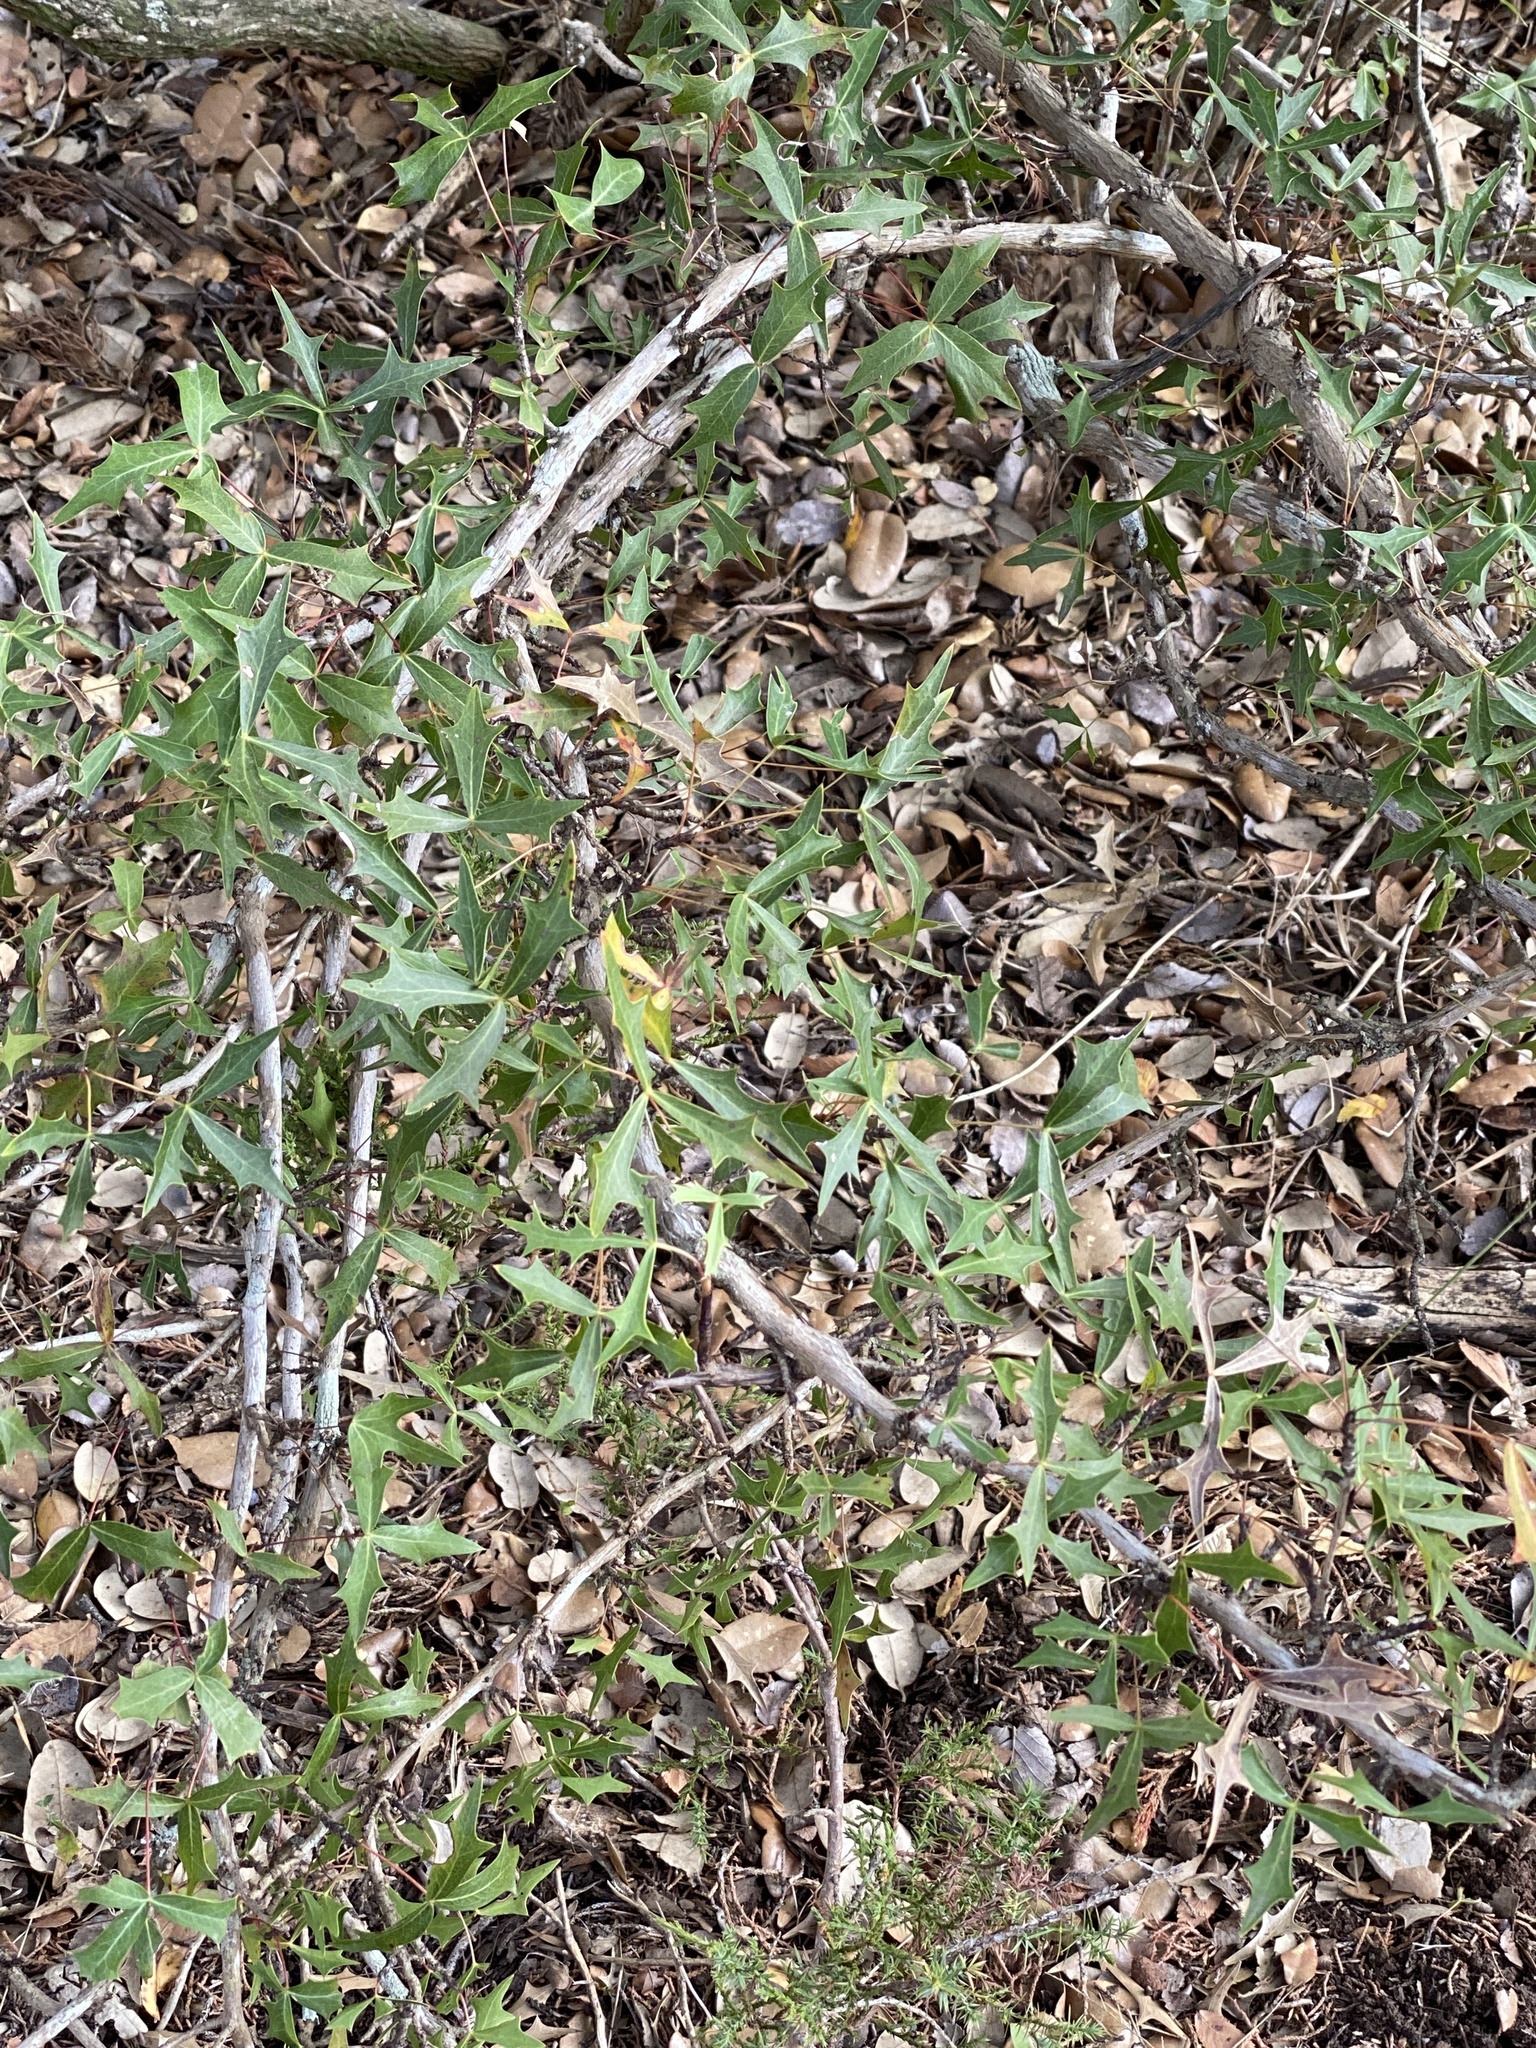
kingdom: Plantae
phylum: Tracheophyta
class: Magnoliopsida
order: Ranunculales
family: Berberidaceae
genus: Alloberberis
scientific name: Alloberberis trifoliolata
